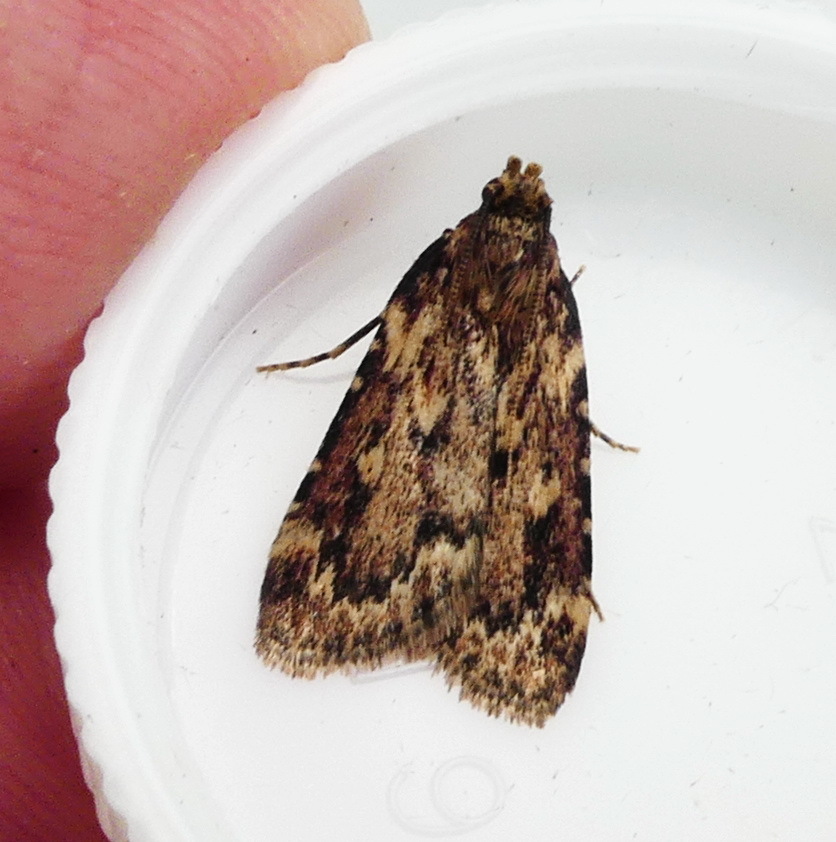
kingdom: Animalia
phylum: Arthropoda
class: Insecta
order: Lepidoptera
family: Pyralidae
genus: Aglossa
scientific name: Aglossa cuprina
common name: Grease moth
